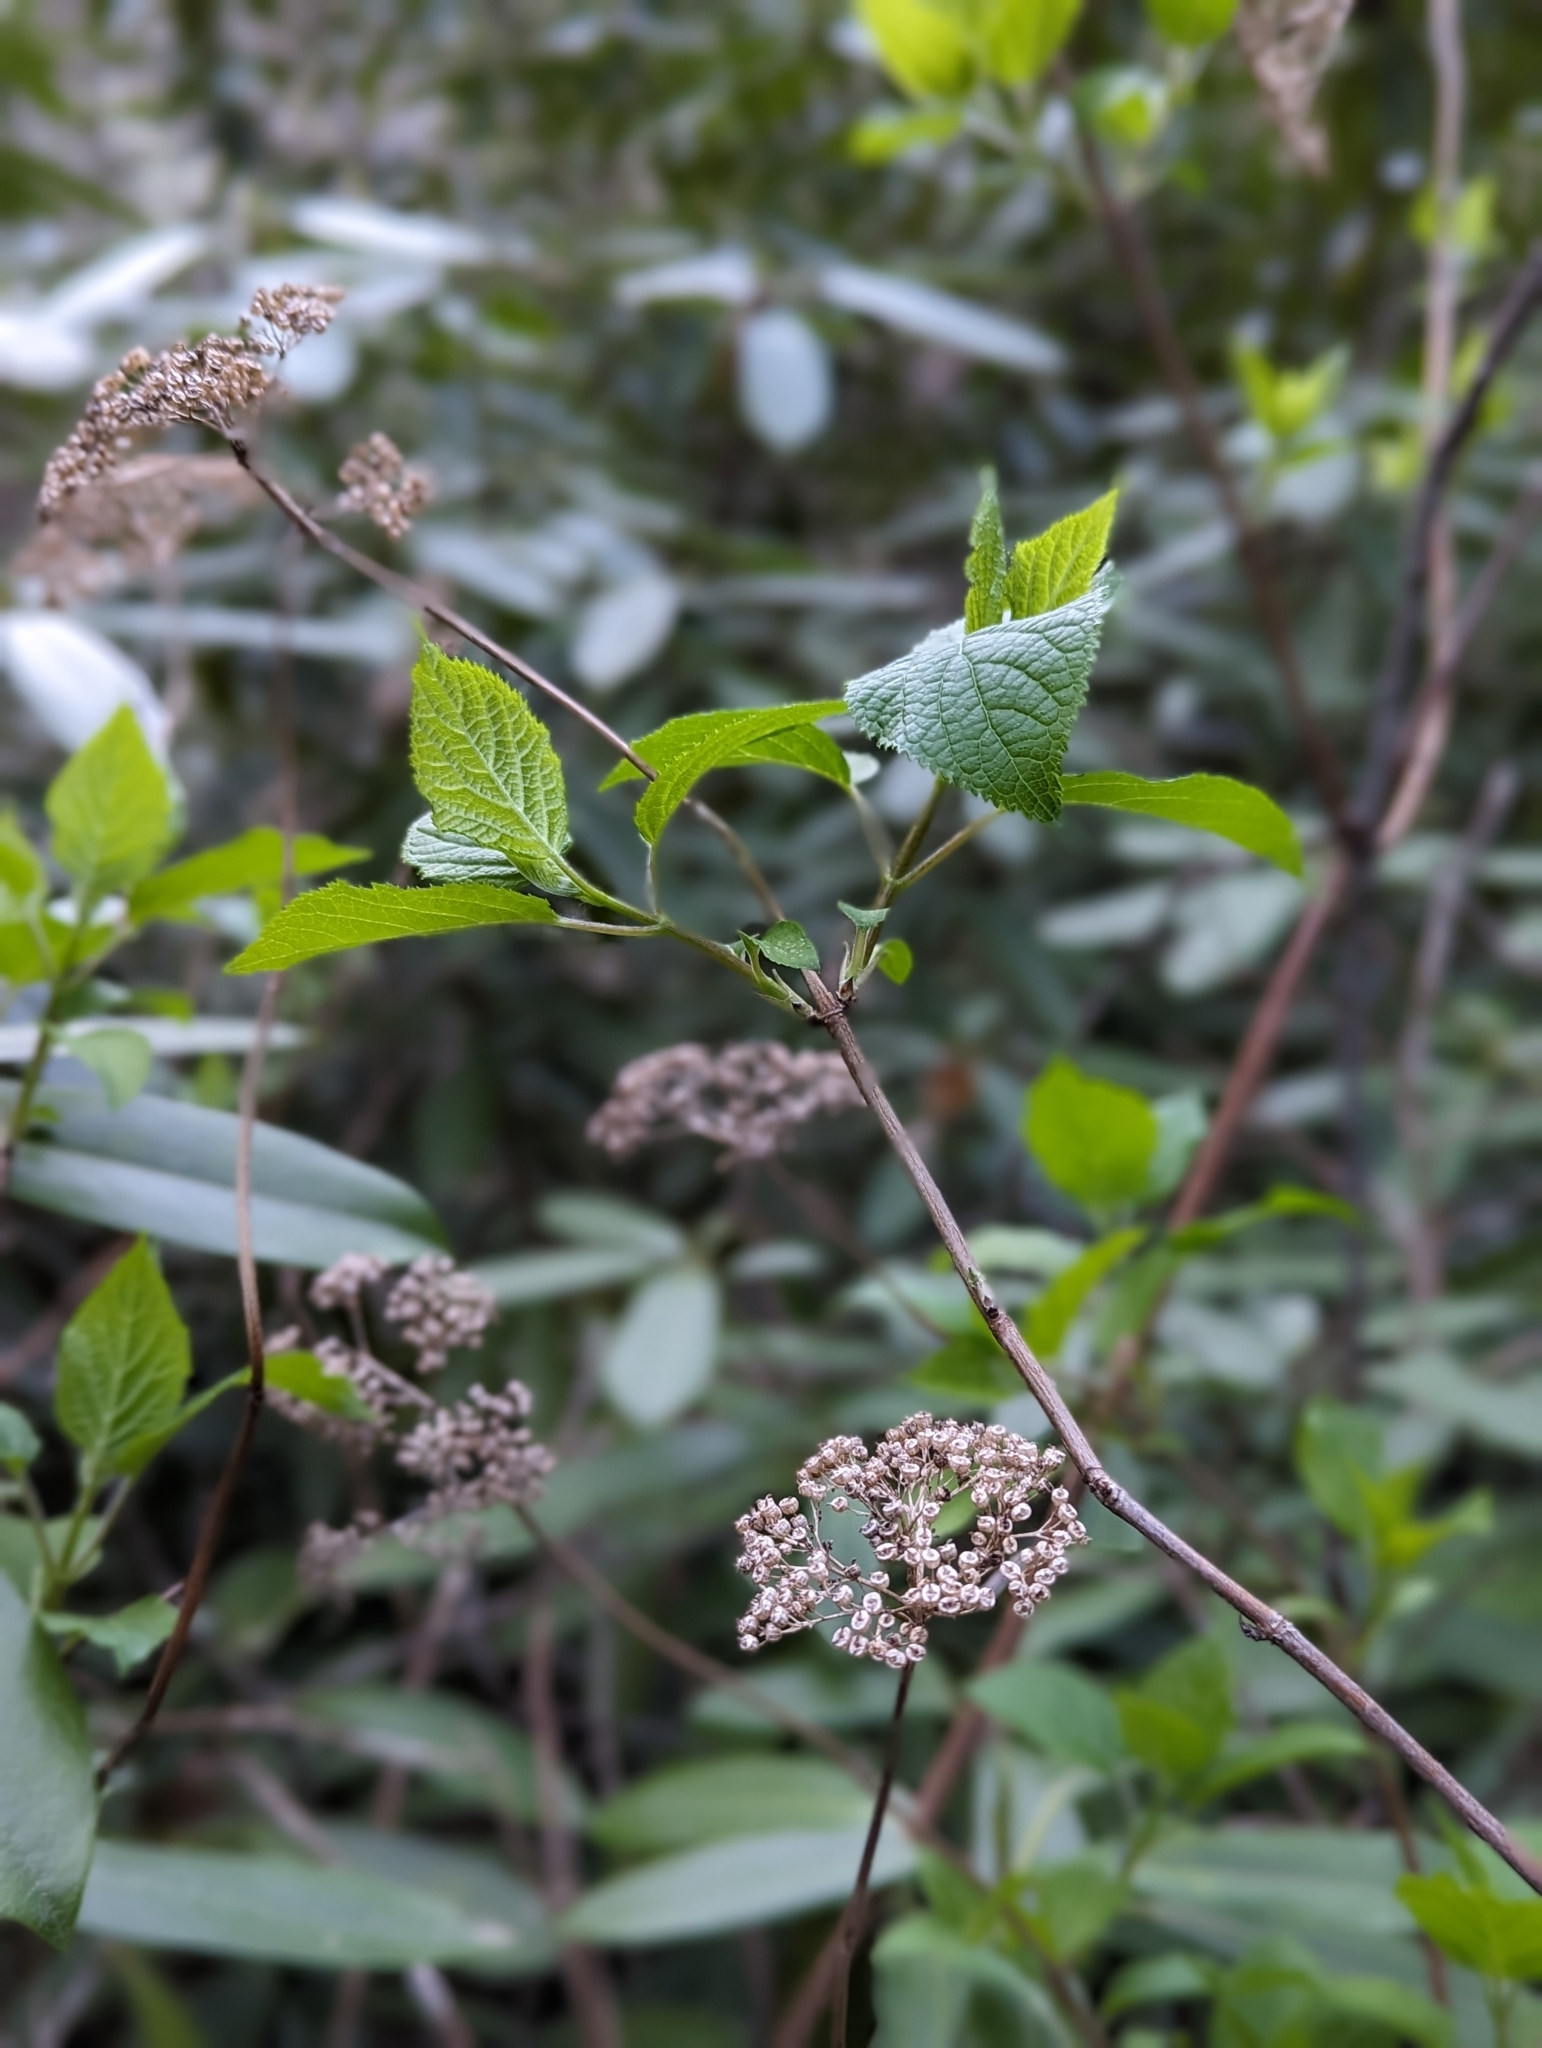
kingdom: Plantae
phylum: Tracheophyta
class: Magnoliopsida
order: Cornales
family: Hydrangeaceae
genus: Hydrangea
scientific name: Hydrangea arborescens
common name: Sevenbark
